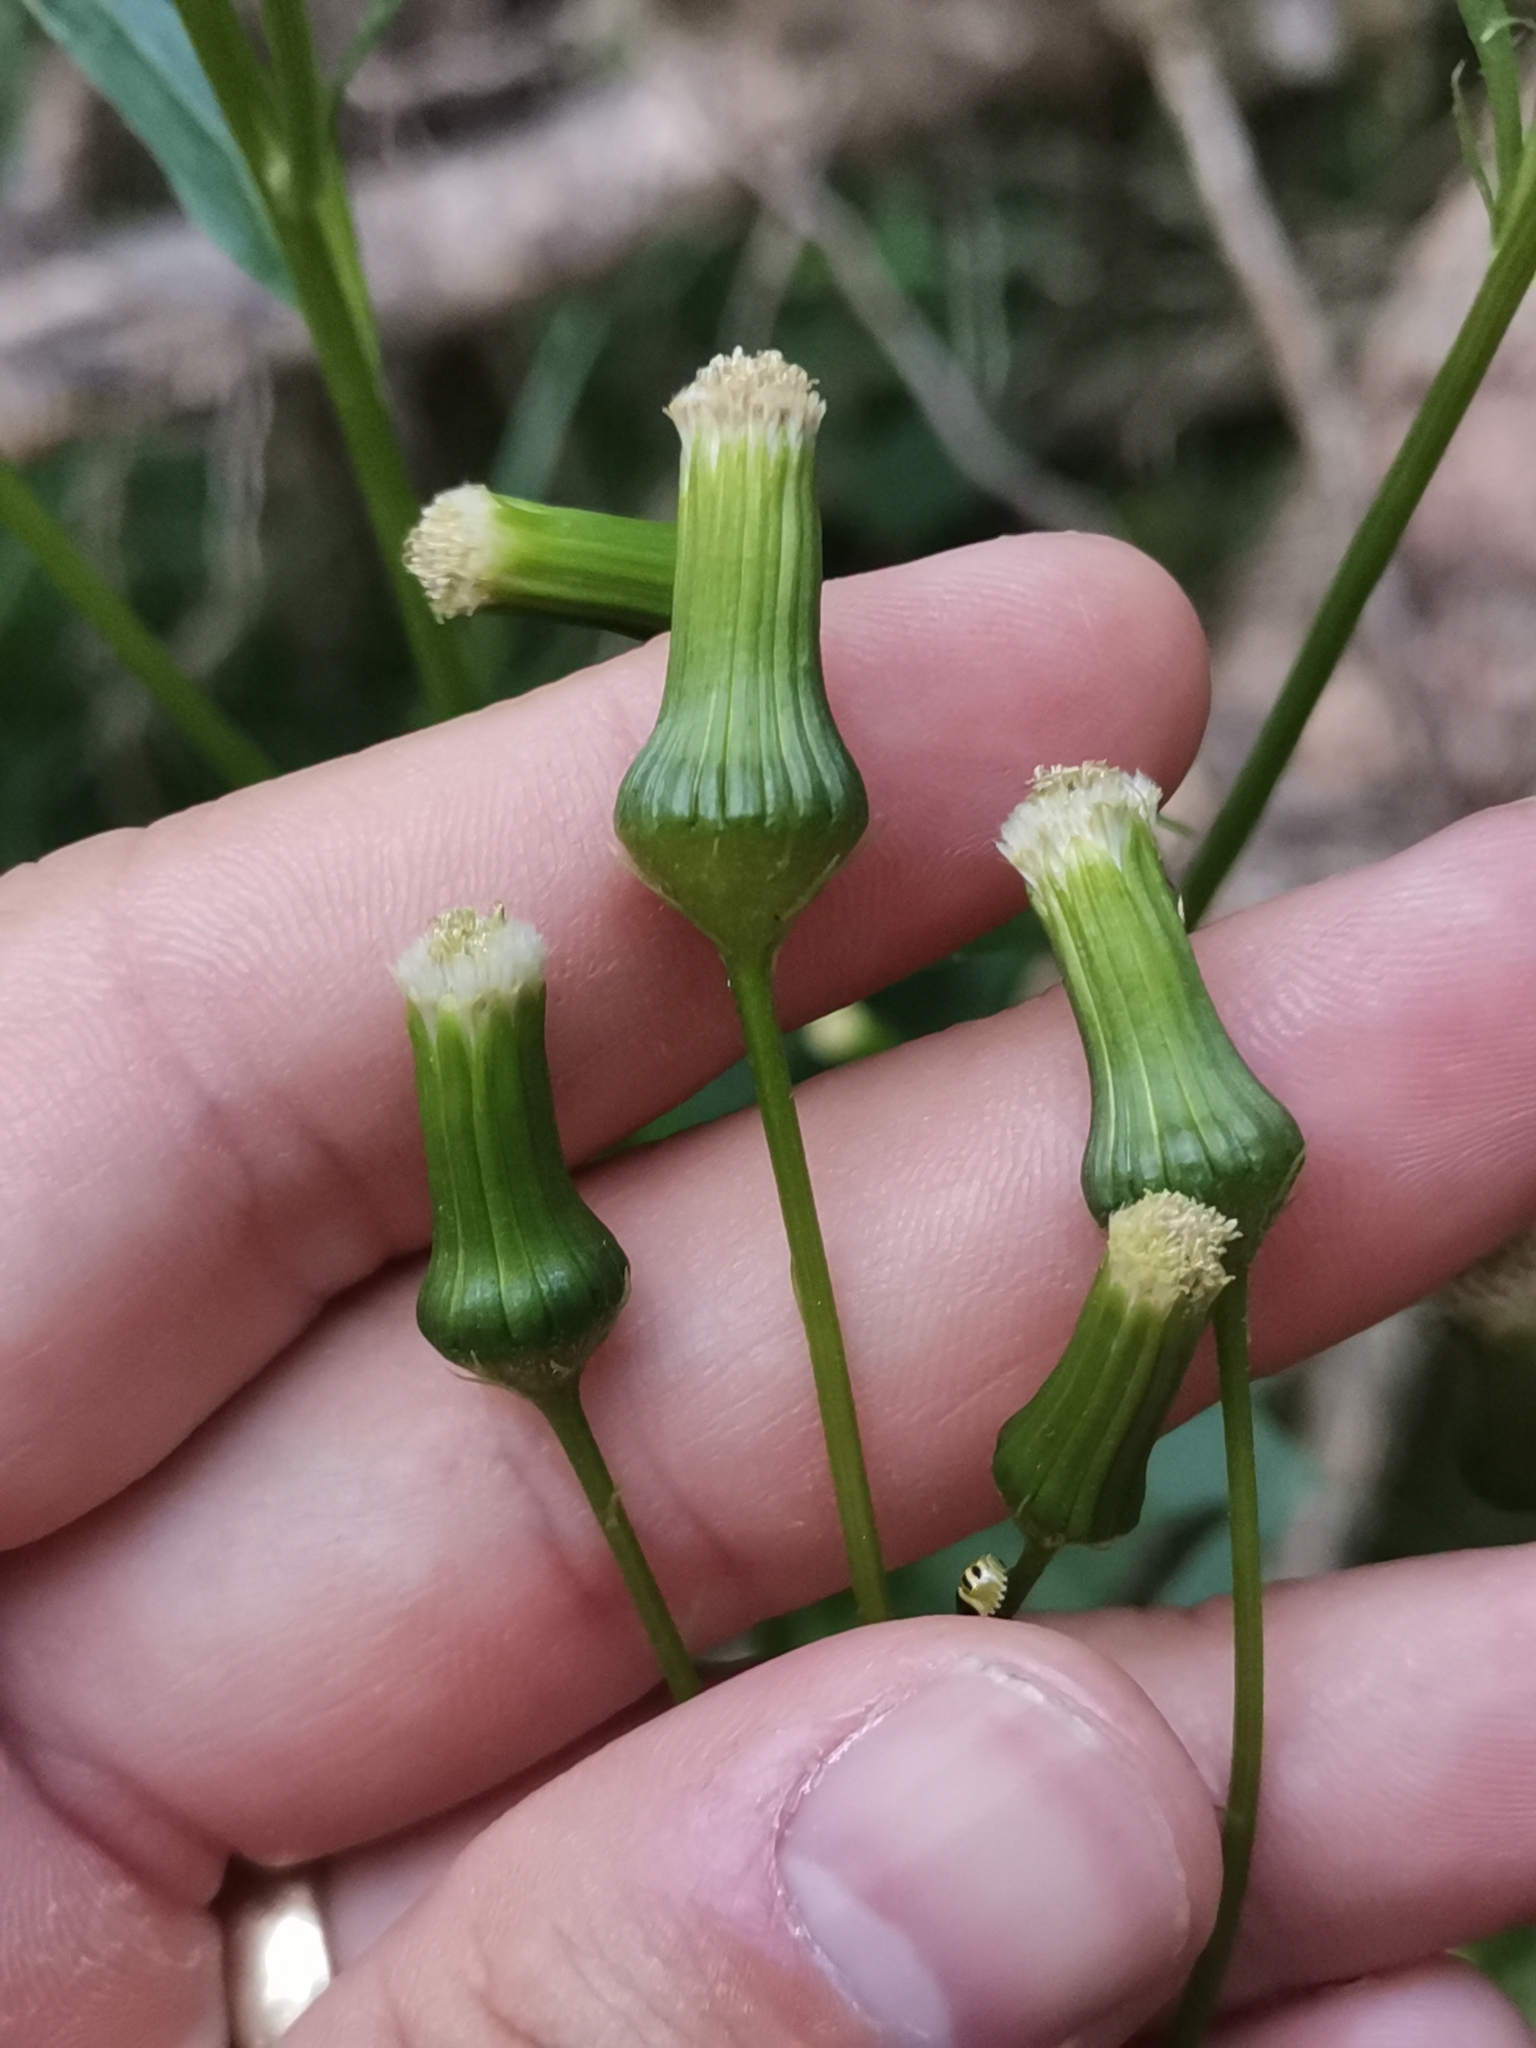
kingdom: Plantae
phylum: Tracheophyta
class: Magnoliopsida
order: Asterales
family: Asteraceae
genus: Erechtites
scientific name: Erechtites hieraciifolius
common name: American burnweed
